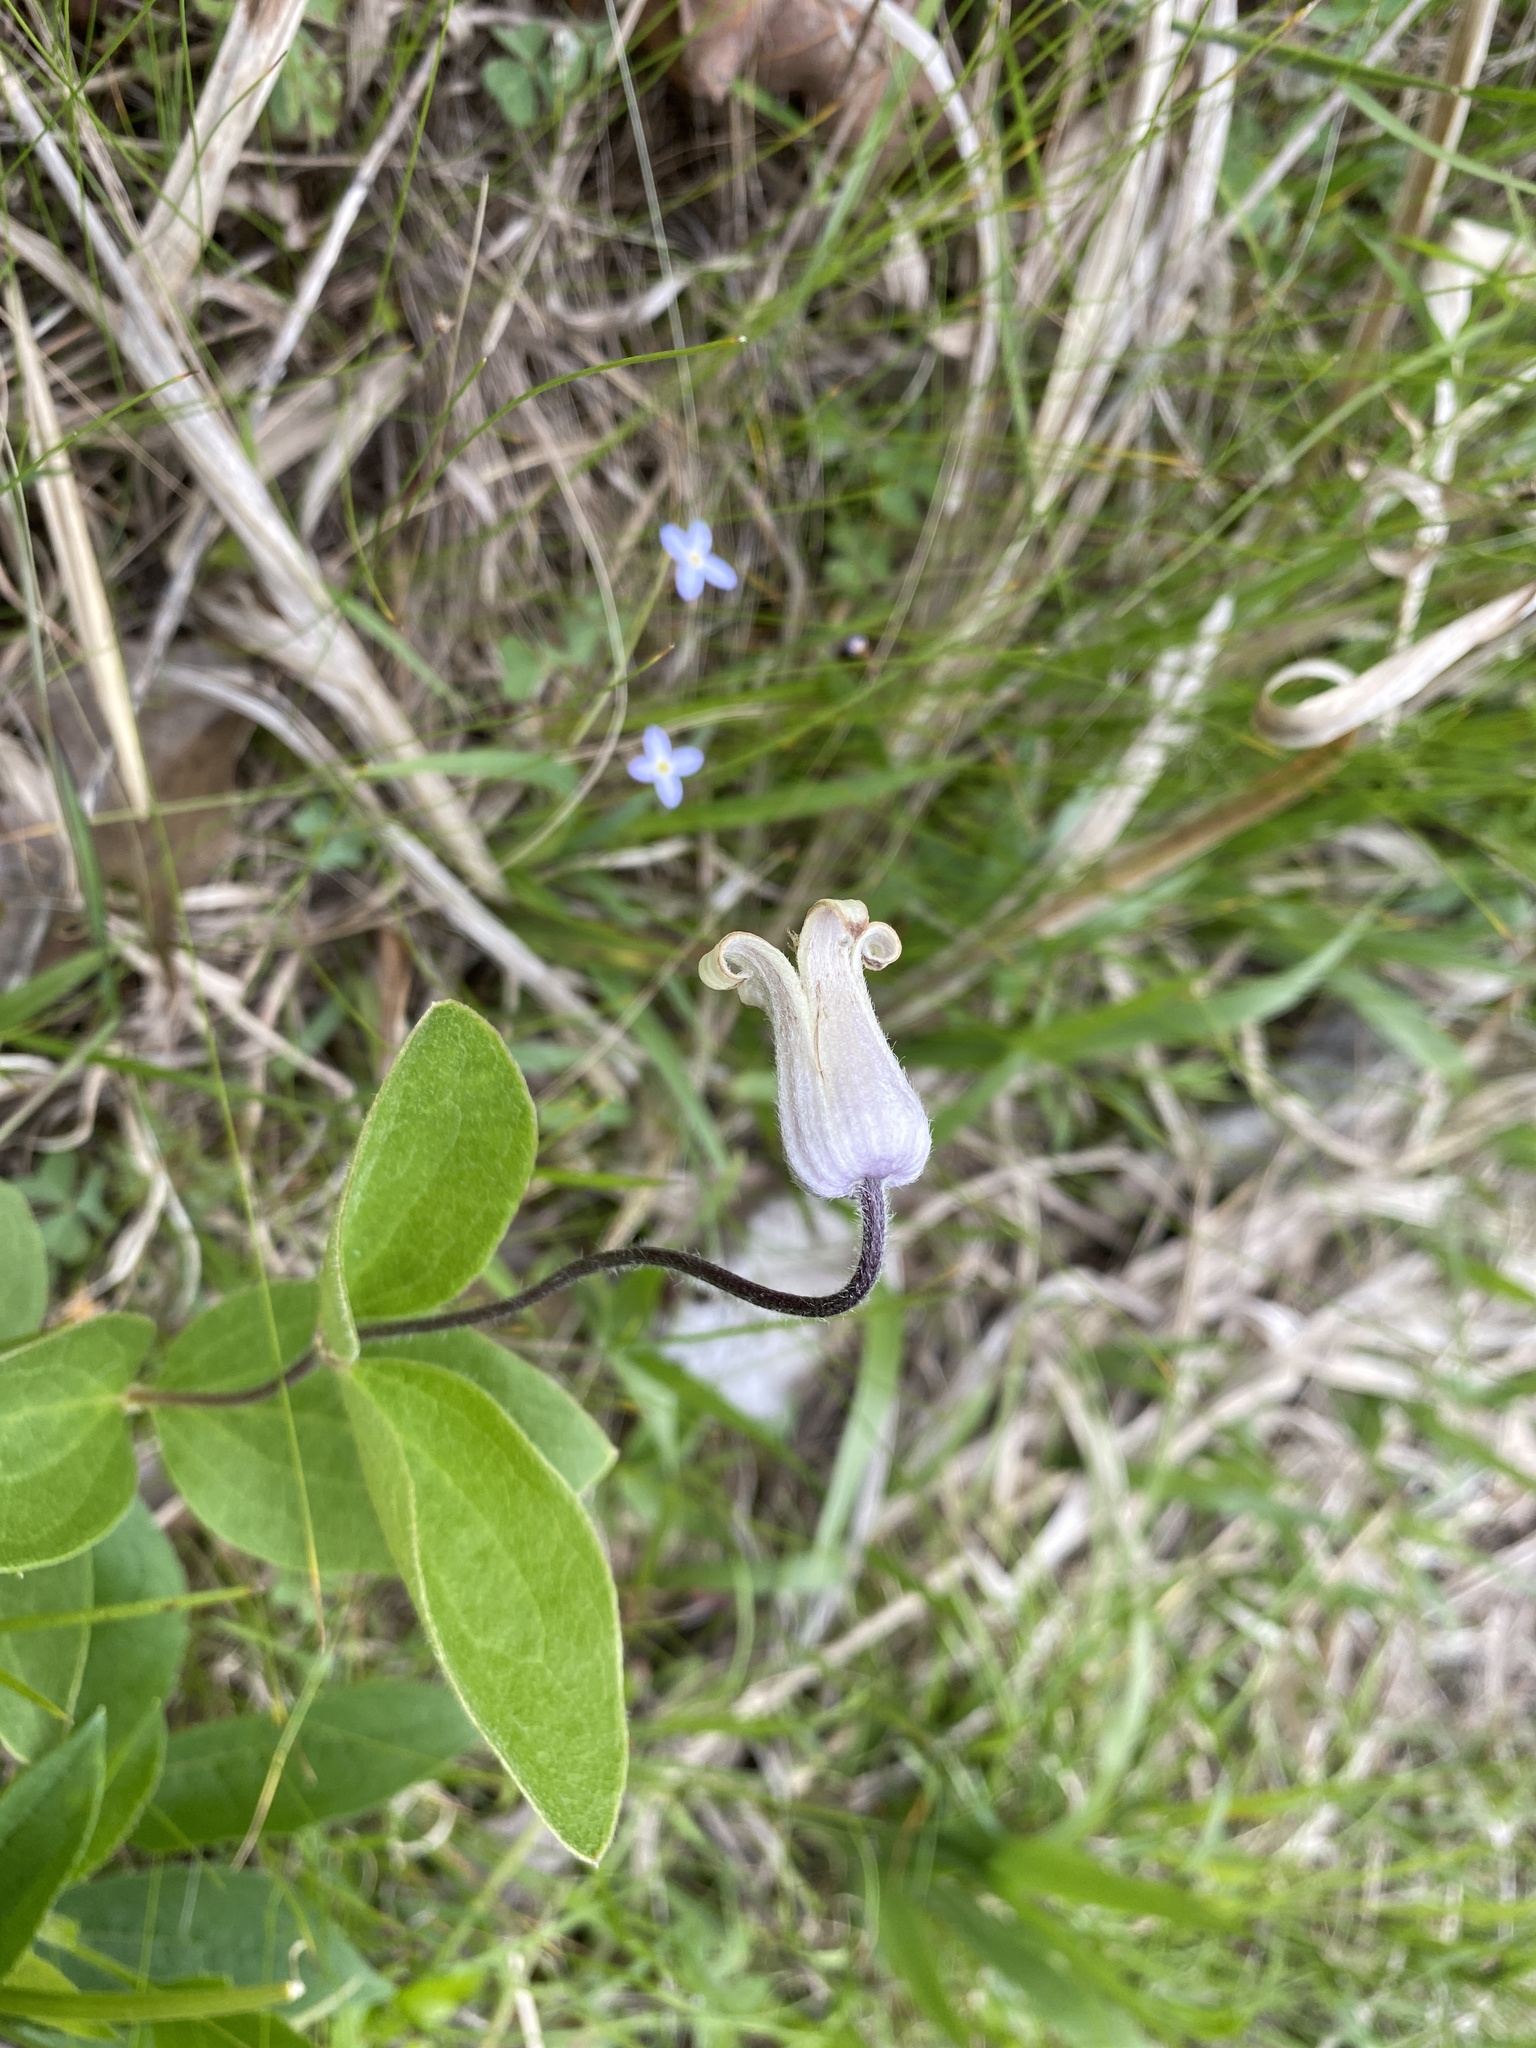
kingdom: Plantae
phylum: Tracheophyta
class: Magnoliopsida
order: Ranunculales
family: Ranunculaceae
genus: Clematis
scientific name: Clematis ochroleuca
